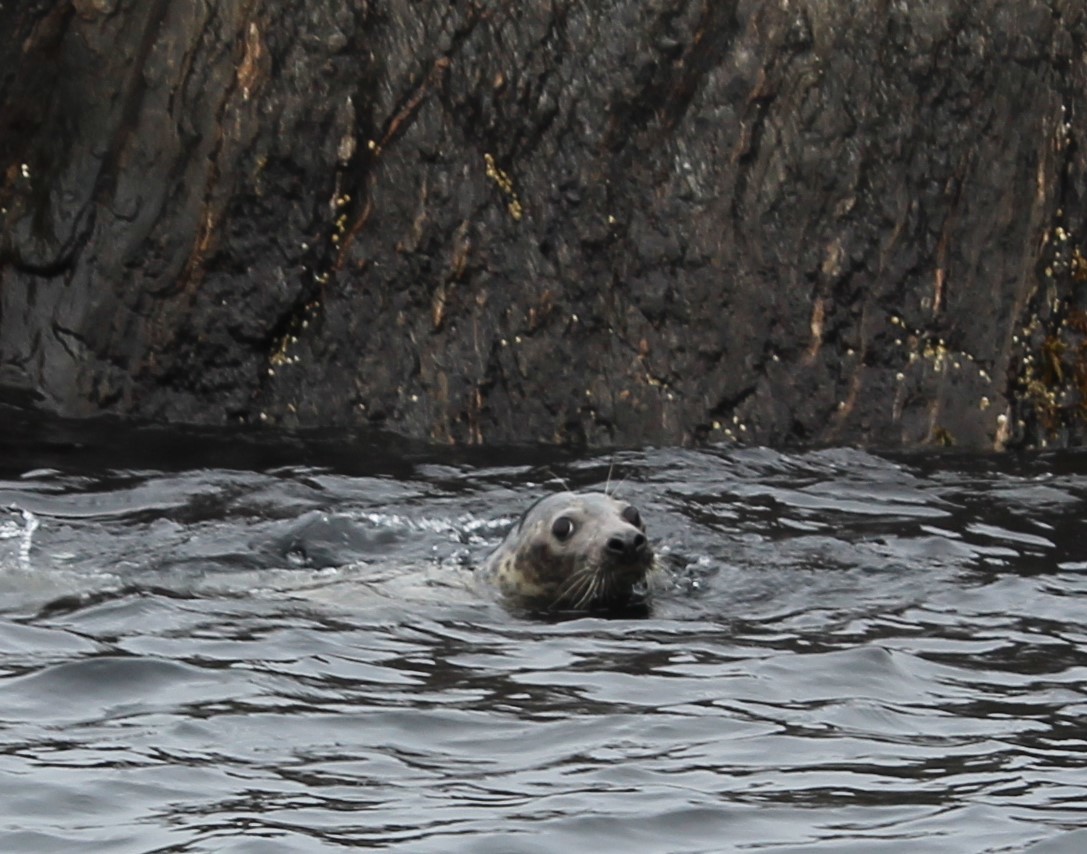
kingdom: Animalia
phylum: Chordata
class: Mammalia
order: Carnivora
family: Phocidae
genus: Halichoerus
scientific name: Halichoerus grypus
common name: Grey seal
